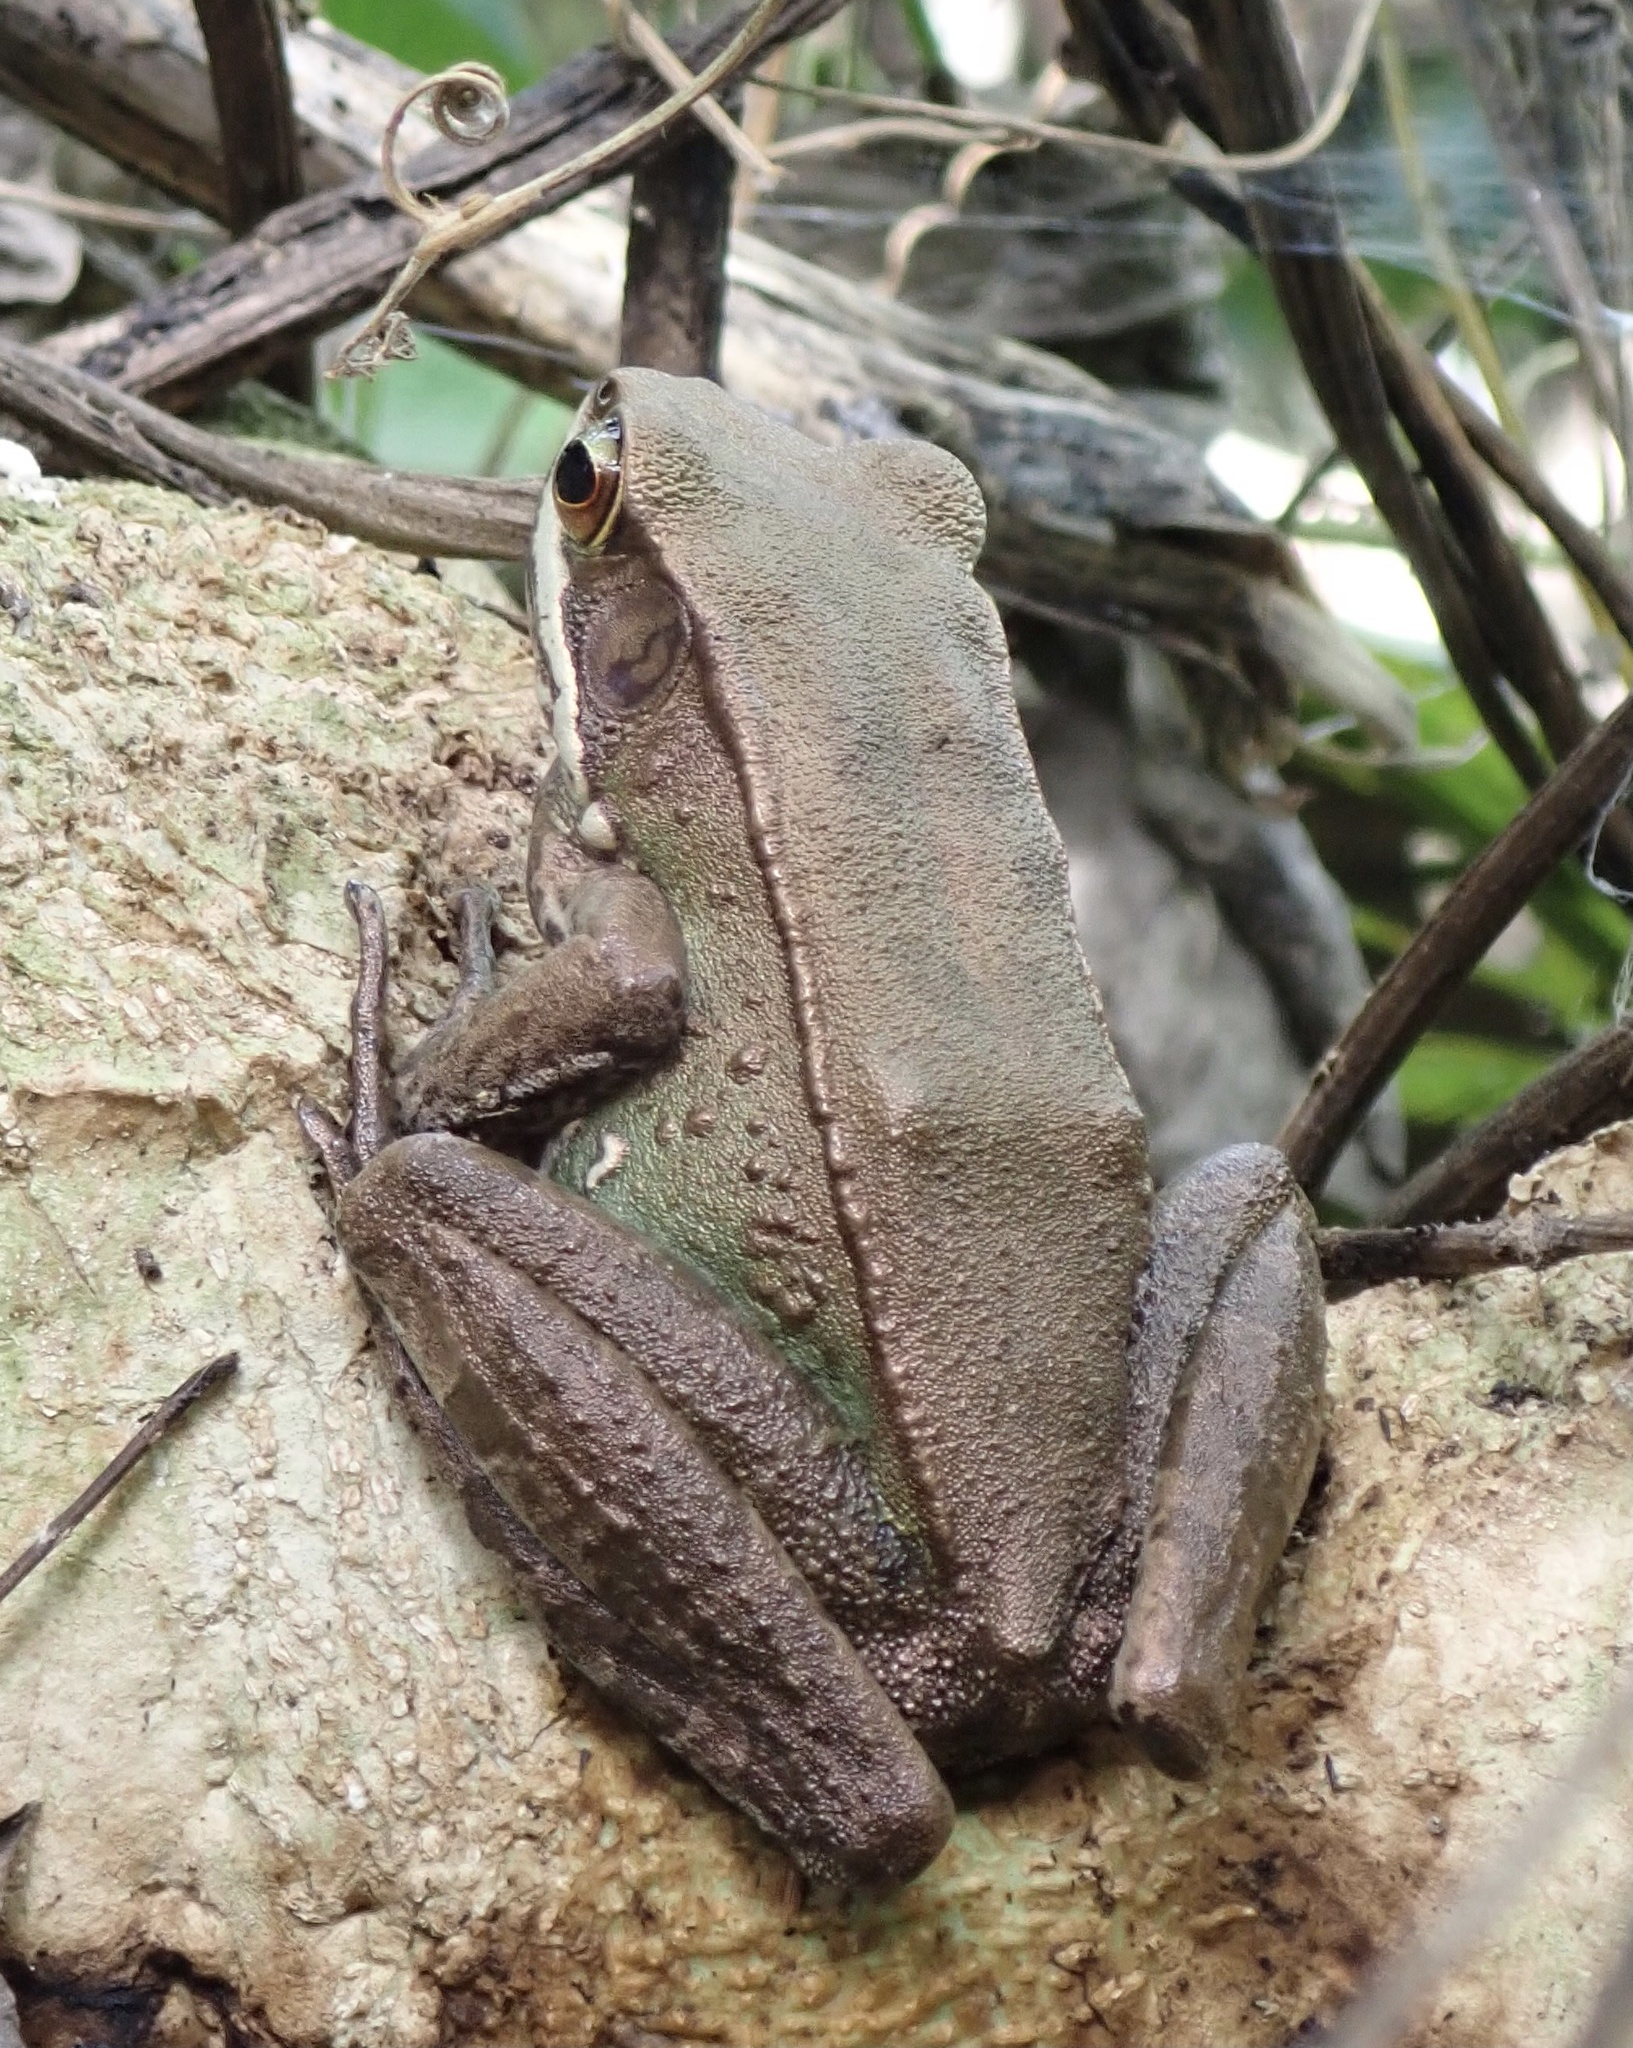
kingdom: Animalia
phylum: Chordata
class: Amphibia
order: Anura
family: Ranidae
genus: Amnirana
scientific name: Amnirana parva
